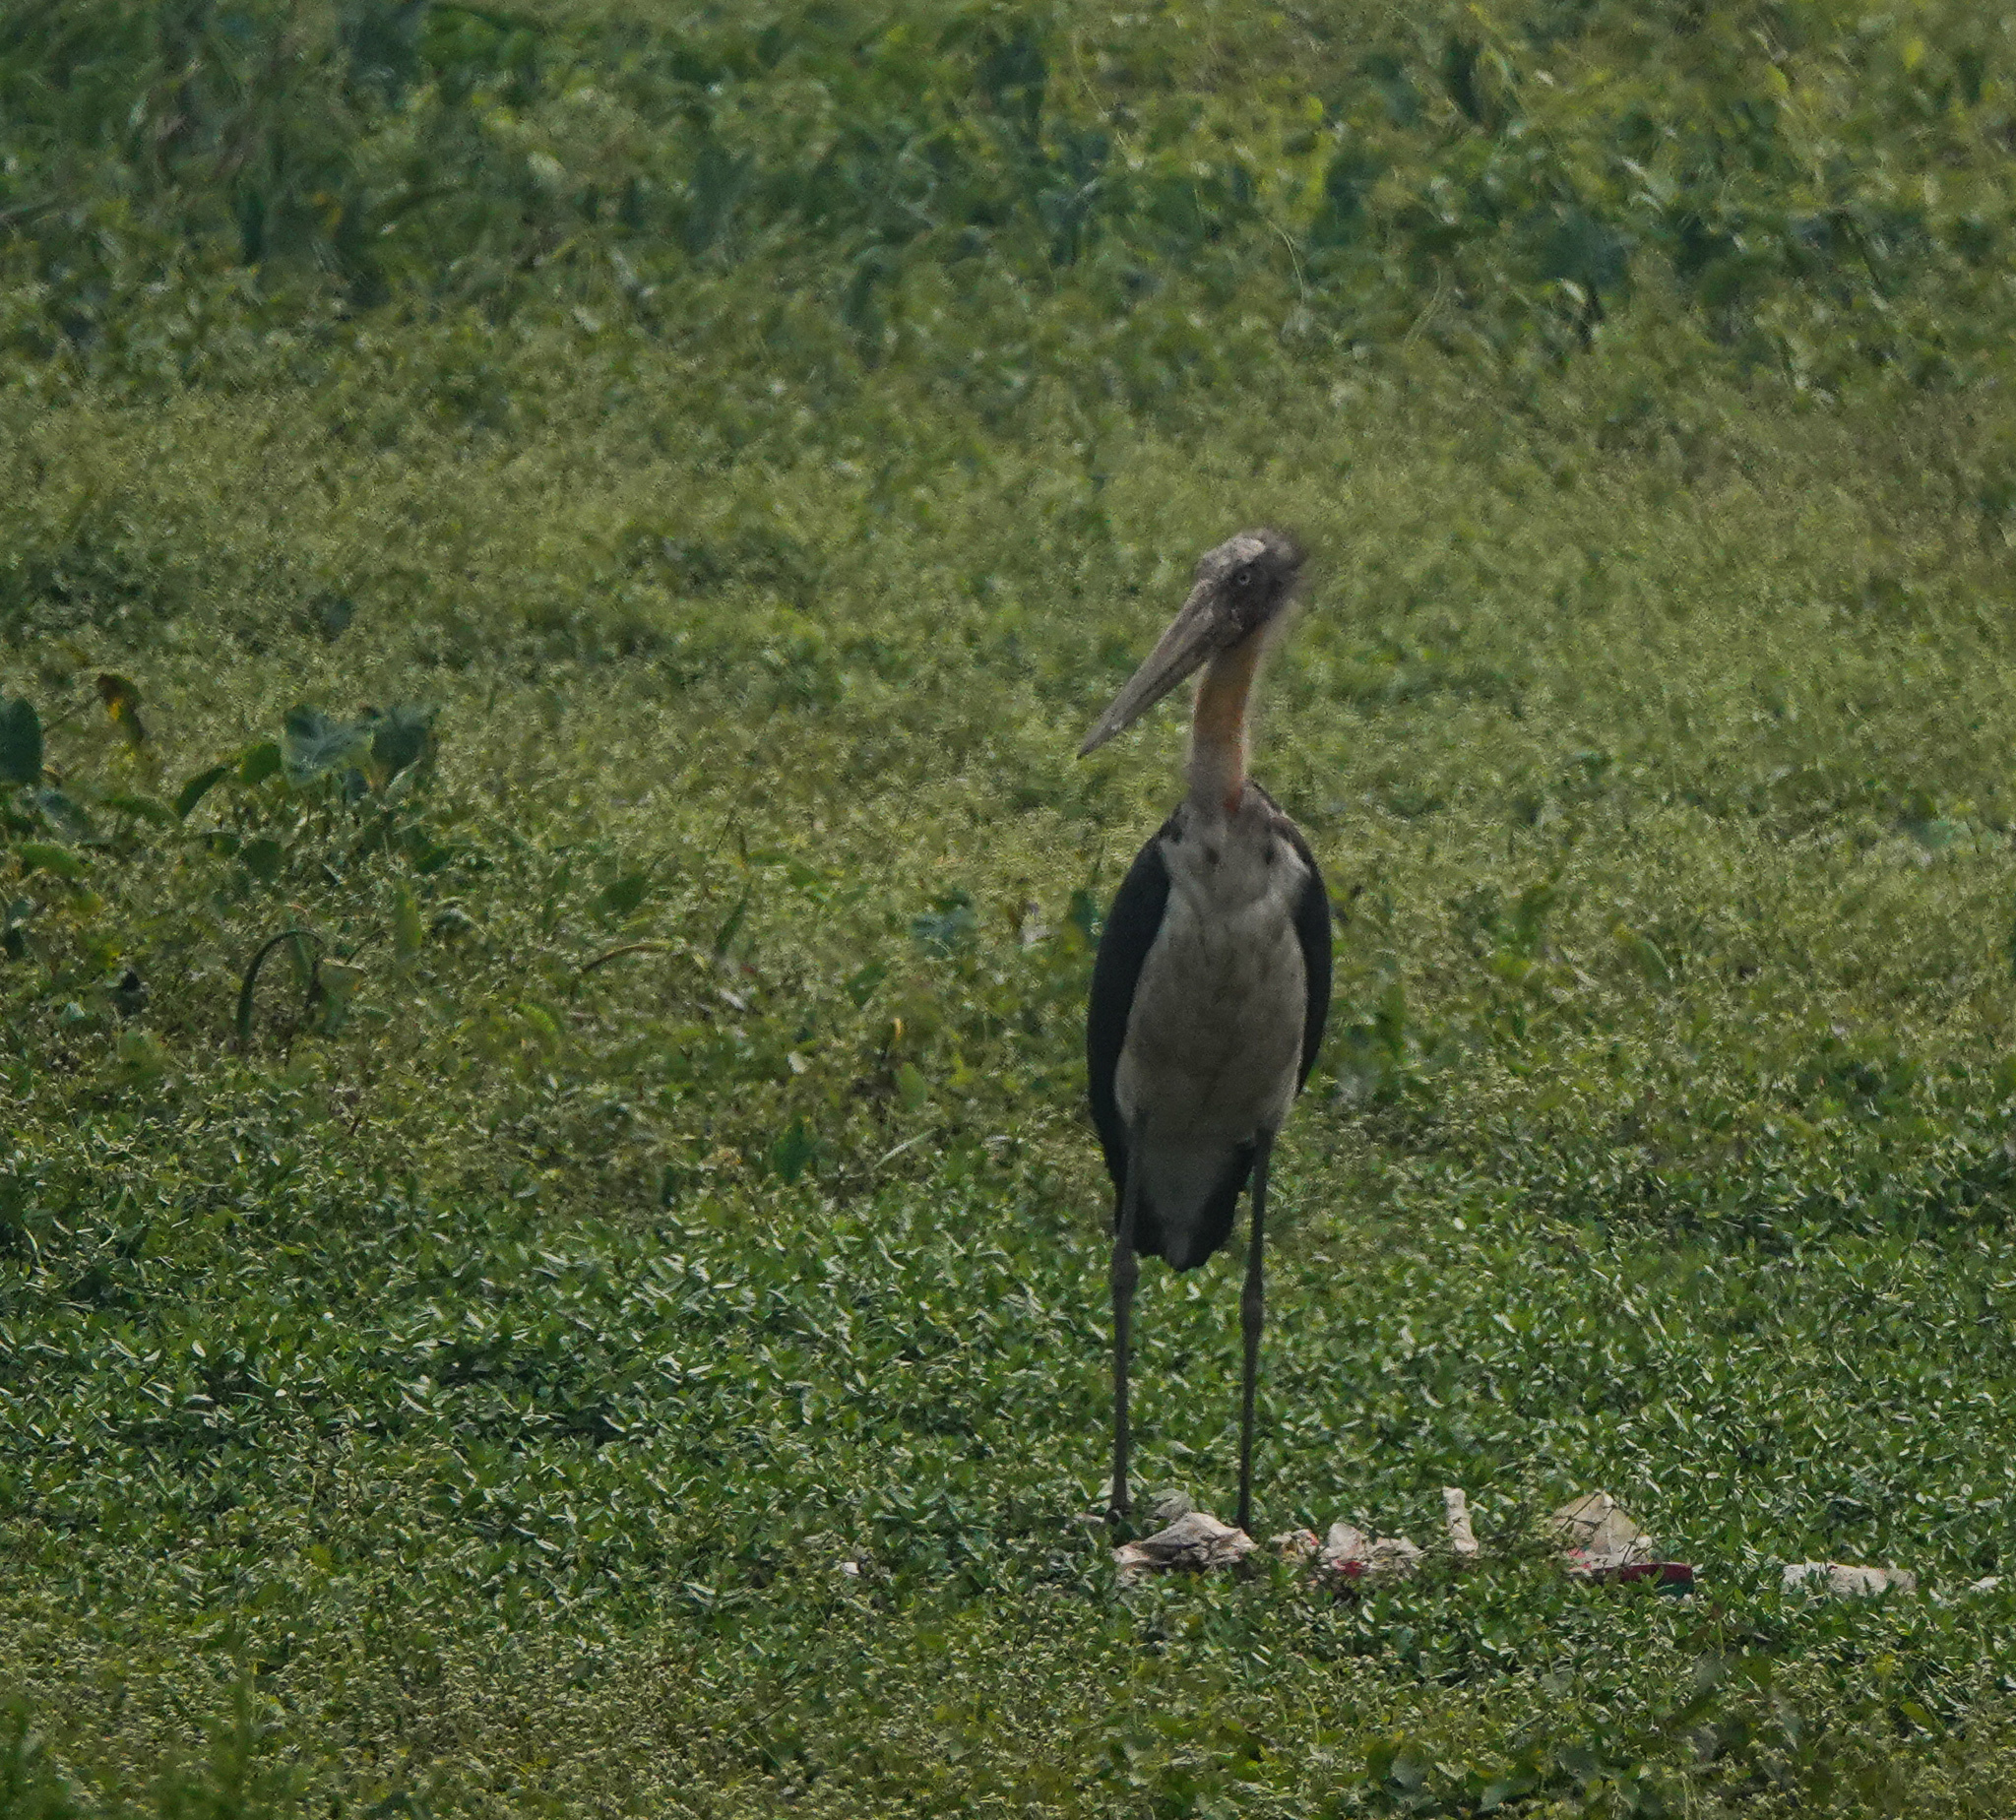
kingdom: Animalia
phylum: Chordata
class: Aves
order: Ciconiiformes
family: Ciconiidae
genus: Leptoptilos
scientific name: Leptoptilos javanicus
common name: Lesser adjutant
